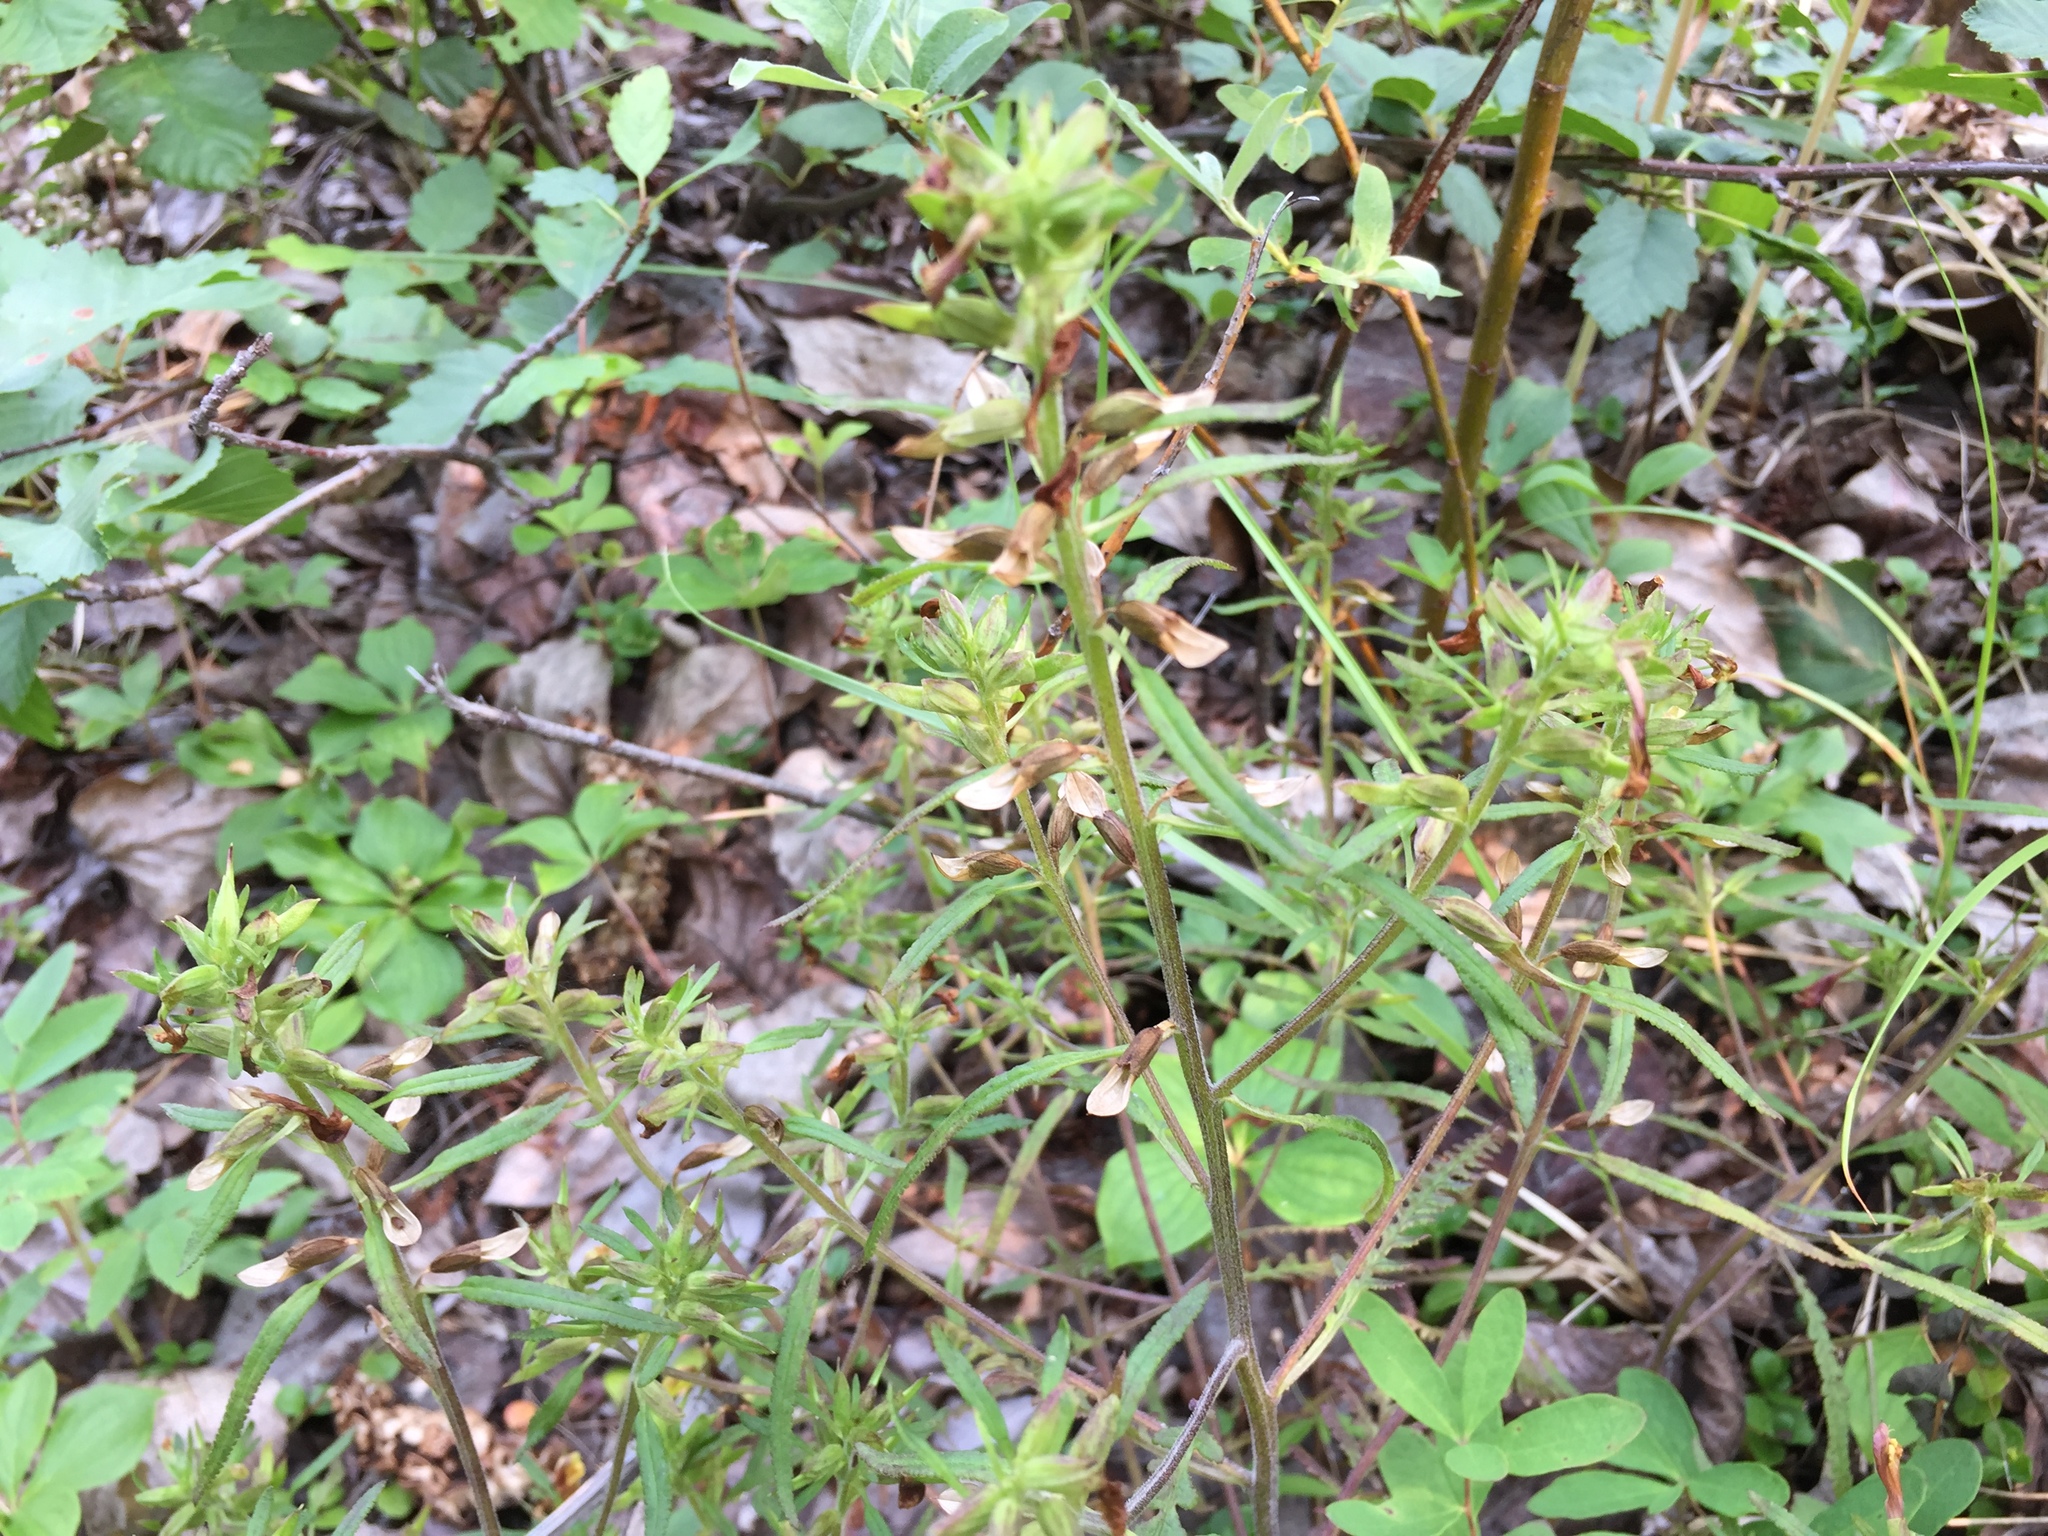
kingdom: Plantae
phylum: Tracheophyta
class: Magnoliopsida
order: Lamiales
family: Orobanchaceae
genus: Pedicularis
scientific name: Pedicularis labradorica
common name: Labrador lousewort
